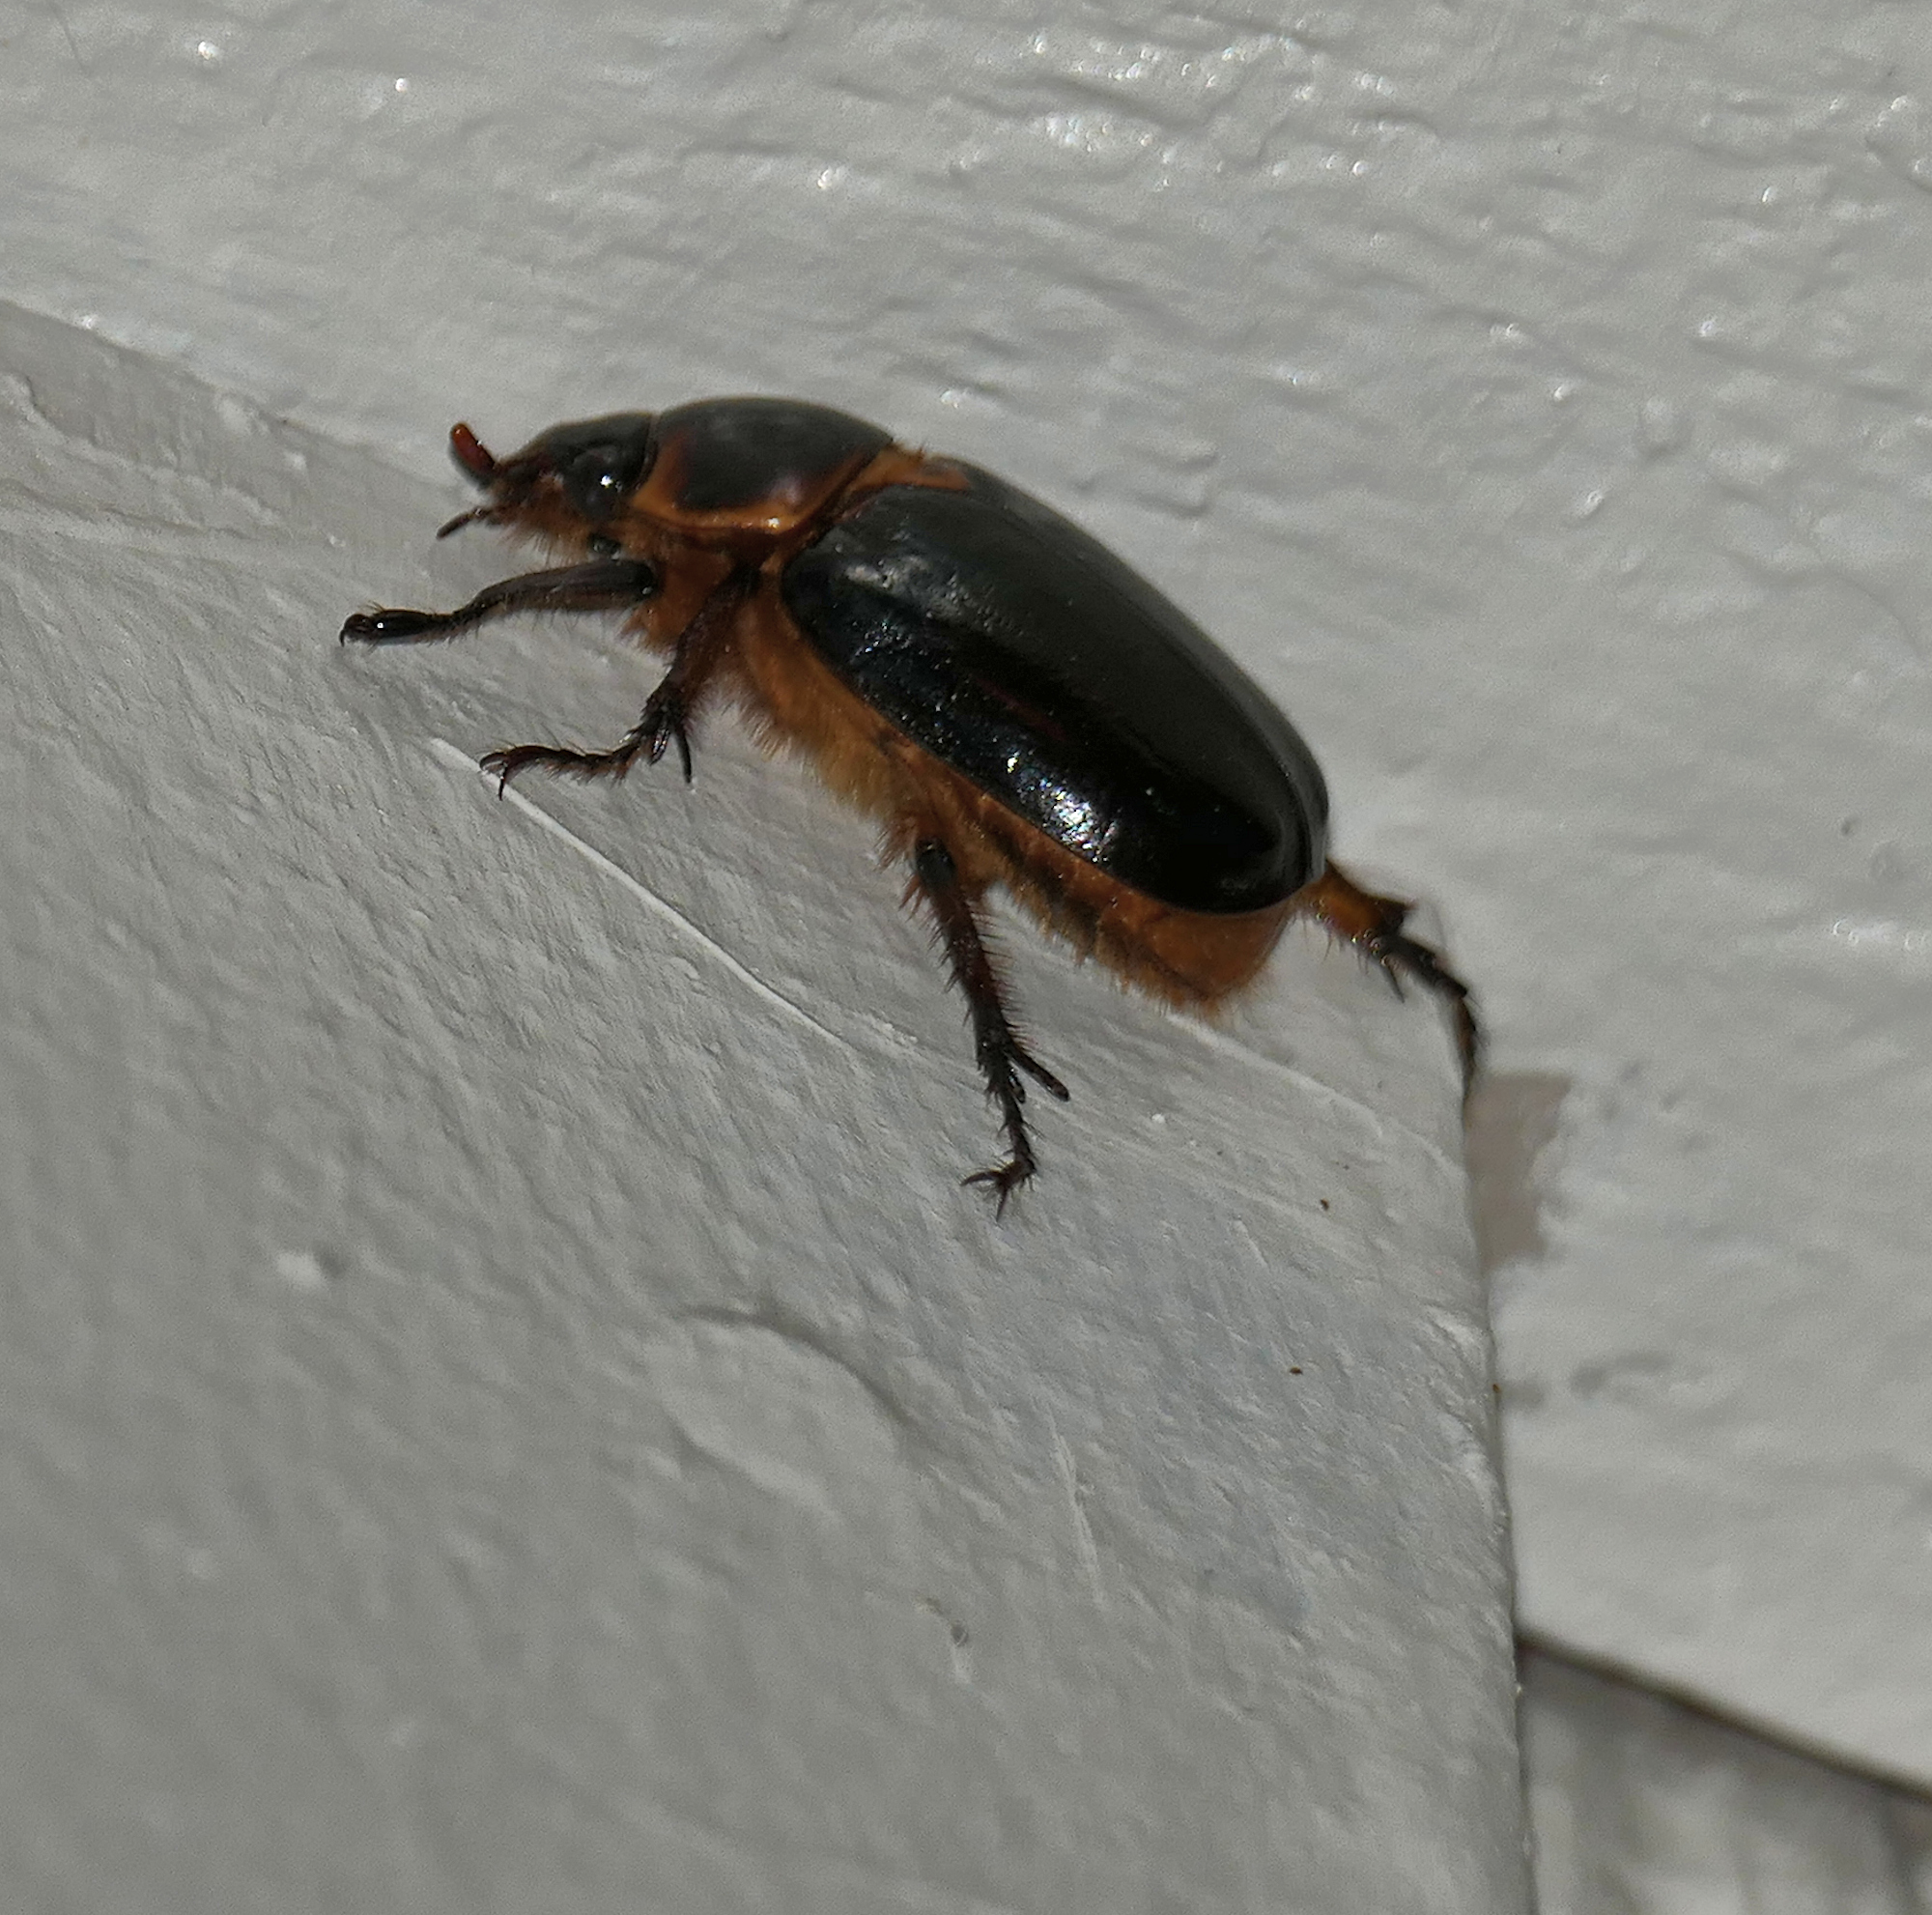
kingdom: Animalia
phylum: Arthropoda
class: Insecta
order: Coleoptera
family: Scarabaeidae
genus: Ancognatha
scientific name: Ancognatha manca
